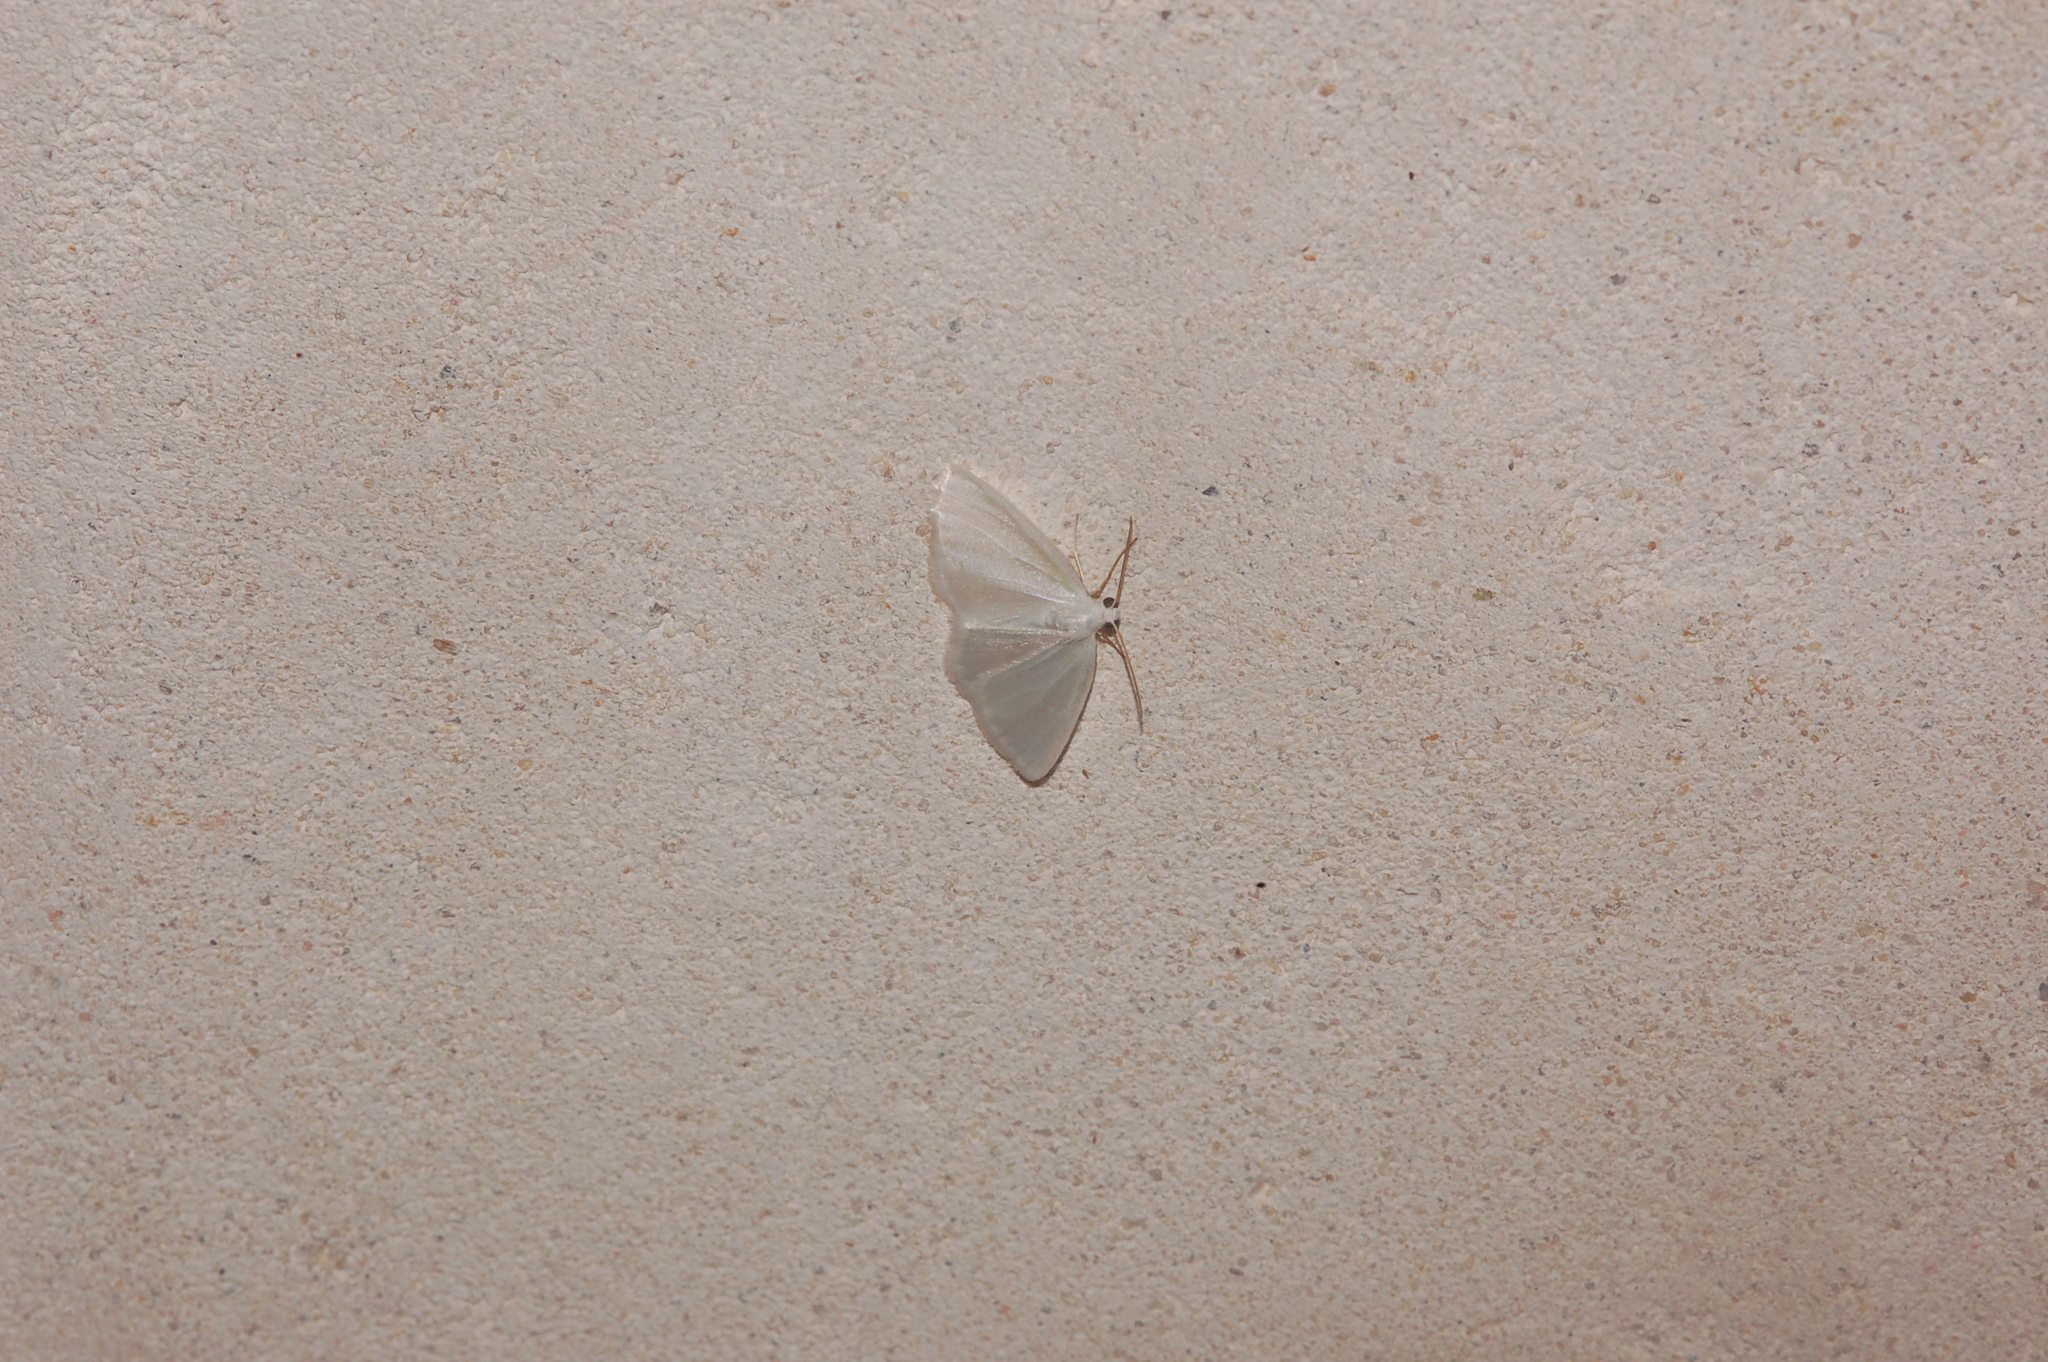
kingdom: Animalia
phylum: Arthropoda
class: Insecta
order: Lepidoptera
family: Geometridae
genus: Lomographa
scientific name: Lomographa vestaliata
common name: White spring moth
